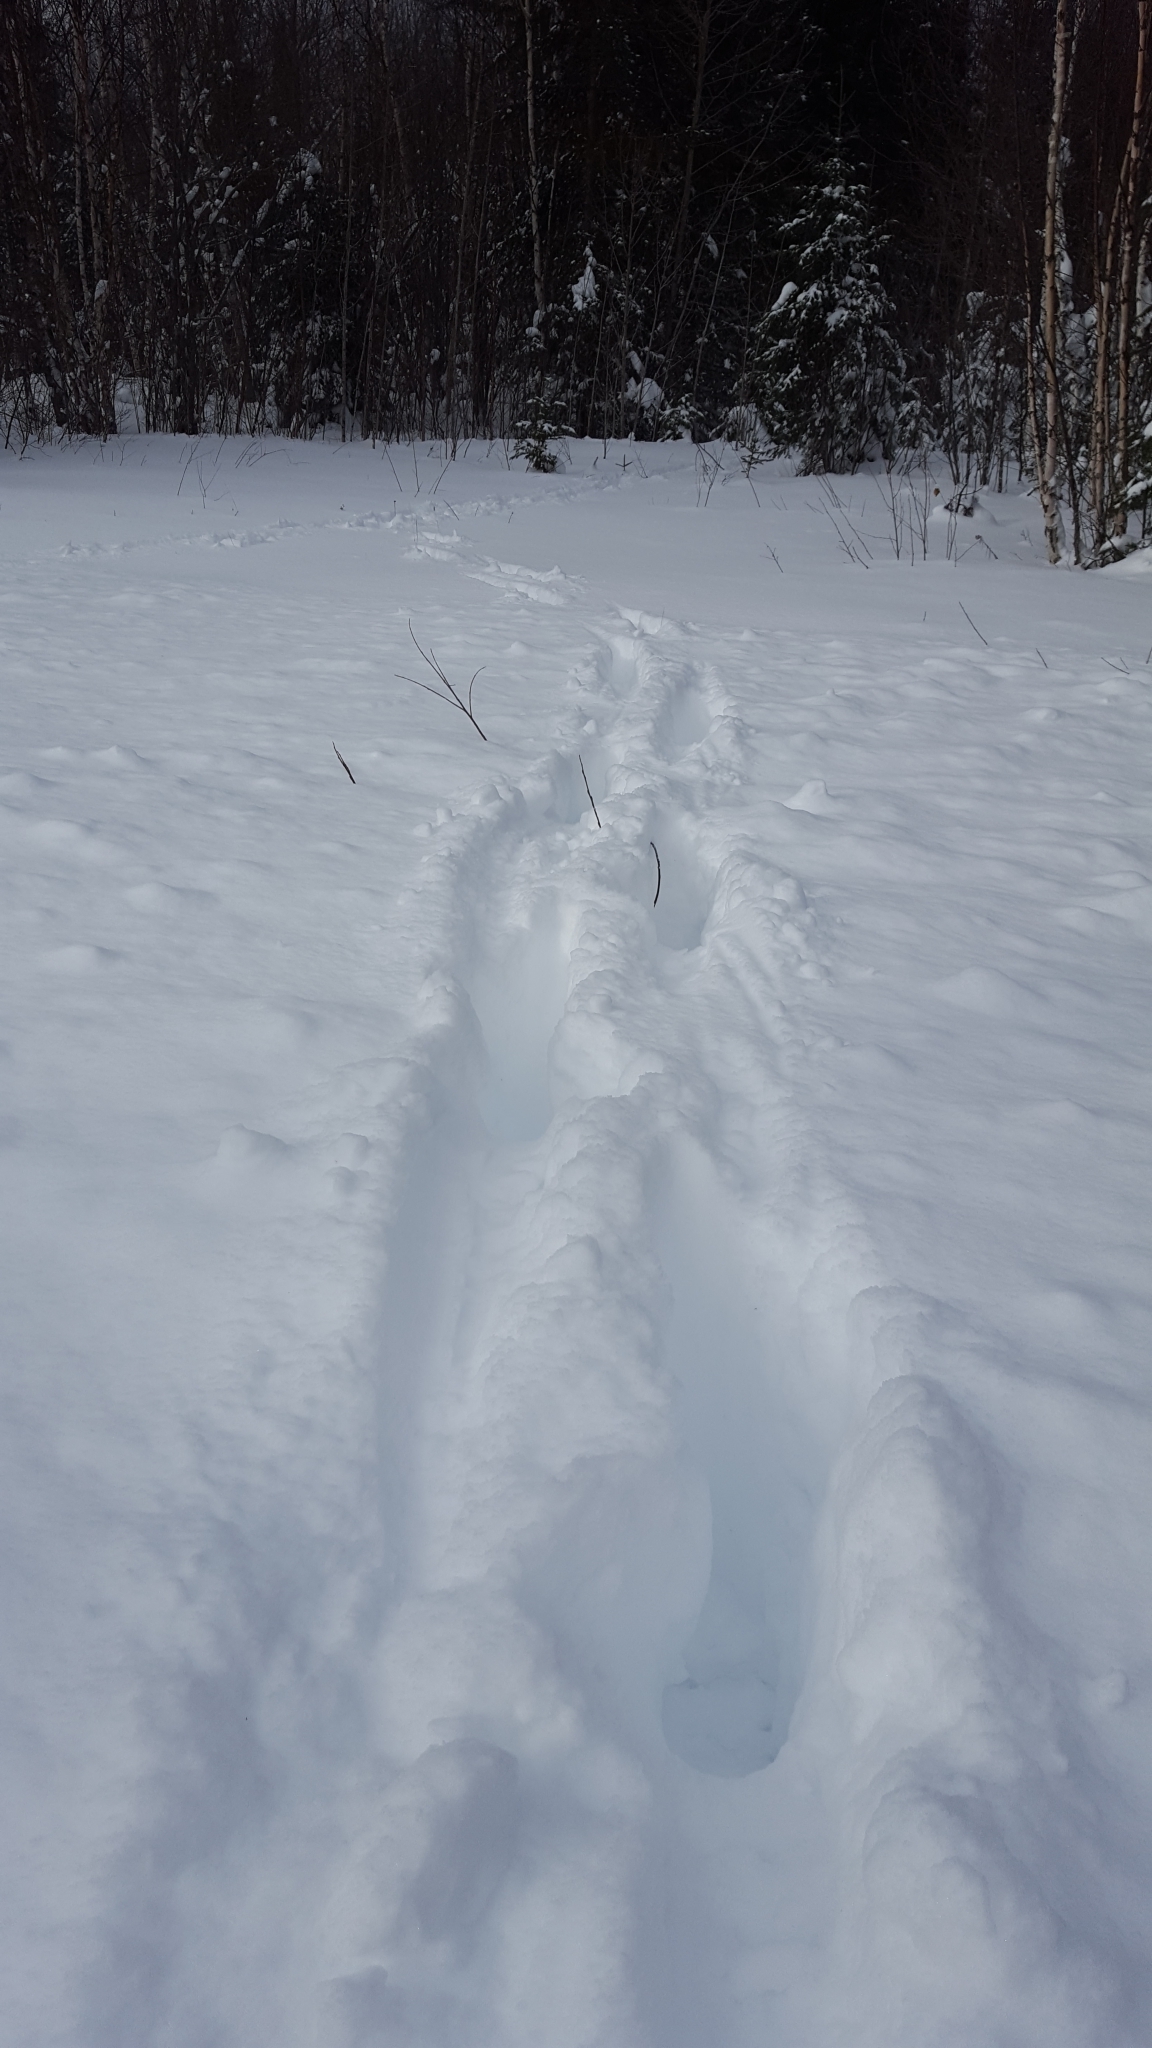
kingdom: Animalia
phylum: Chordata
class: Mammalia
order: Artiodactyla
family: Cervidae
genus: Alces
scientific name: Alces alces
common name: Moose
